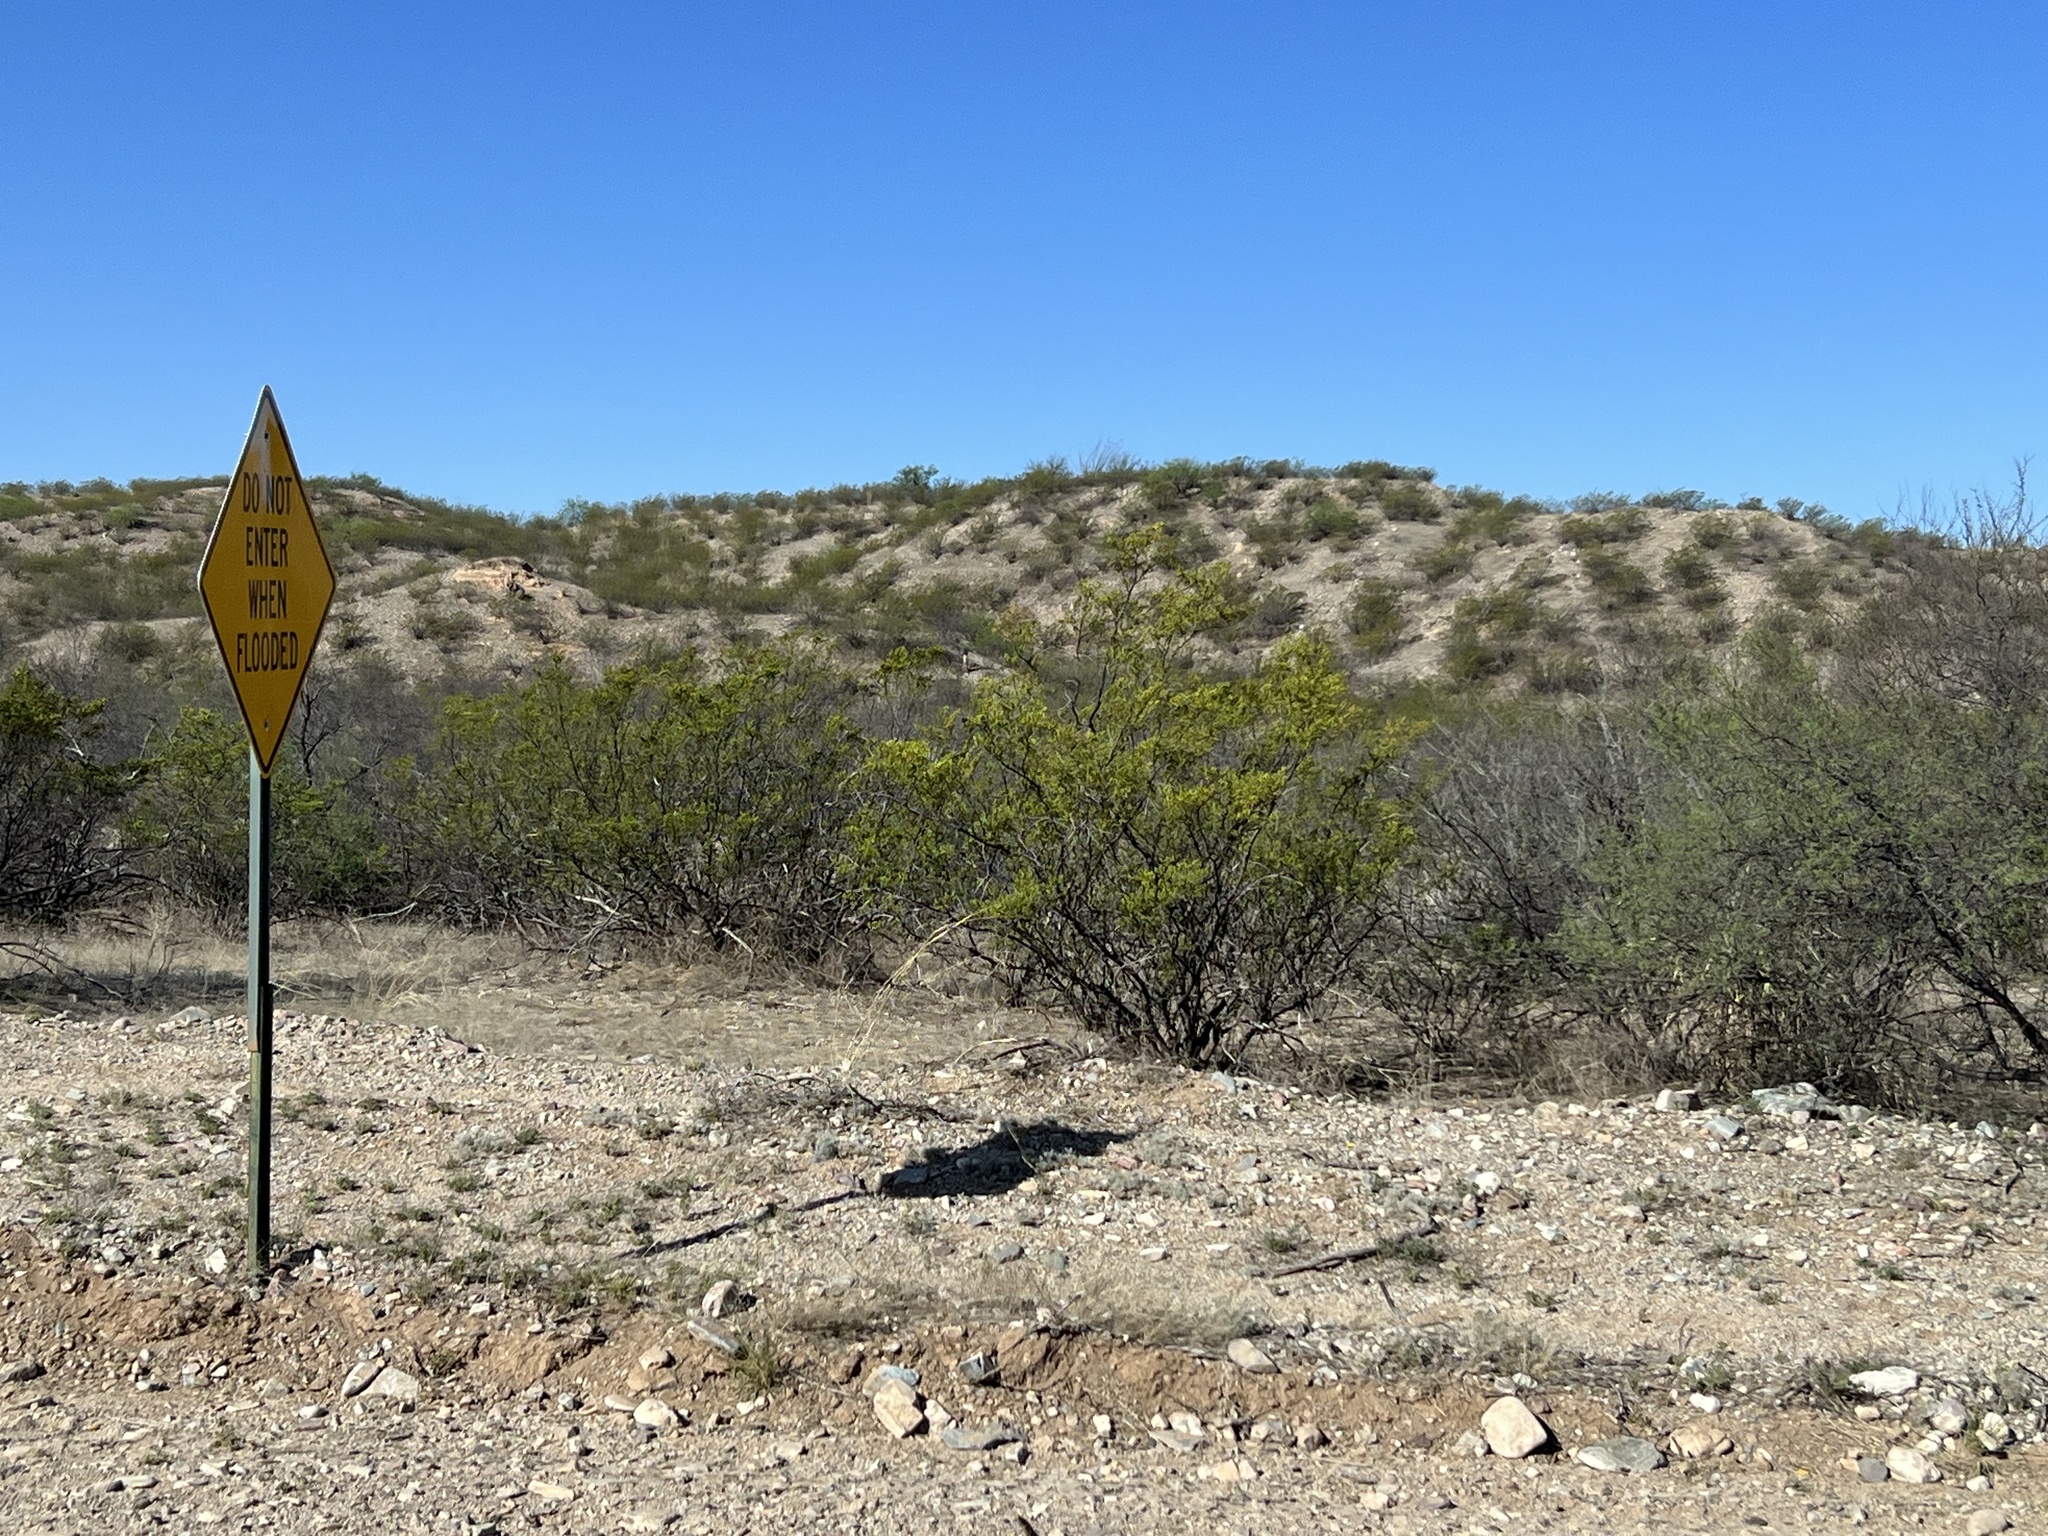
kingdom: Plantae
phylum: Tracheophyta
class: Magnoliopsida
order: Zygophyllales
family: Zygophyllaceae
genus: Larrea
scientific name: Larrea tridentata
